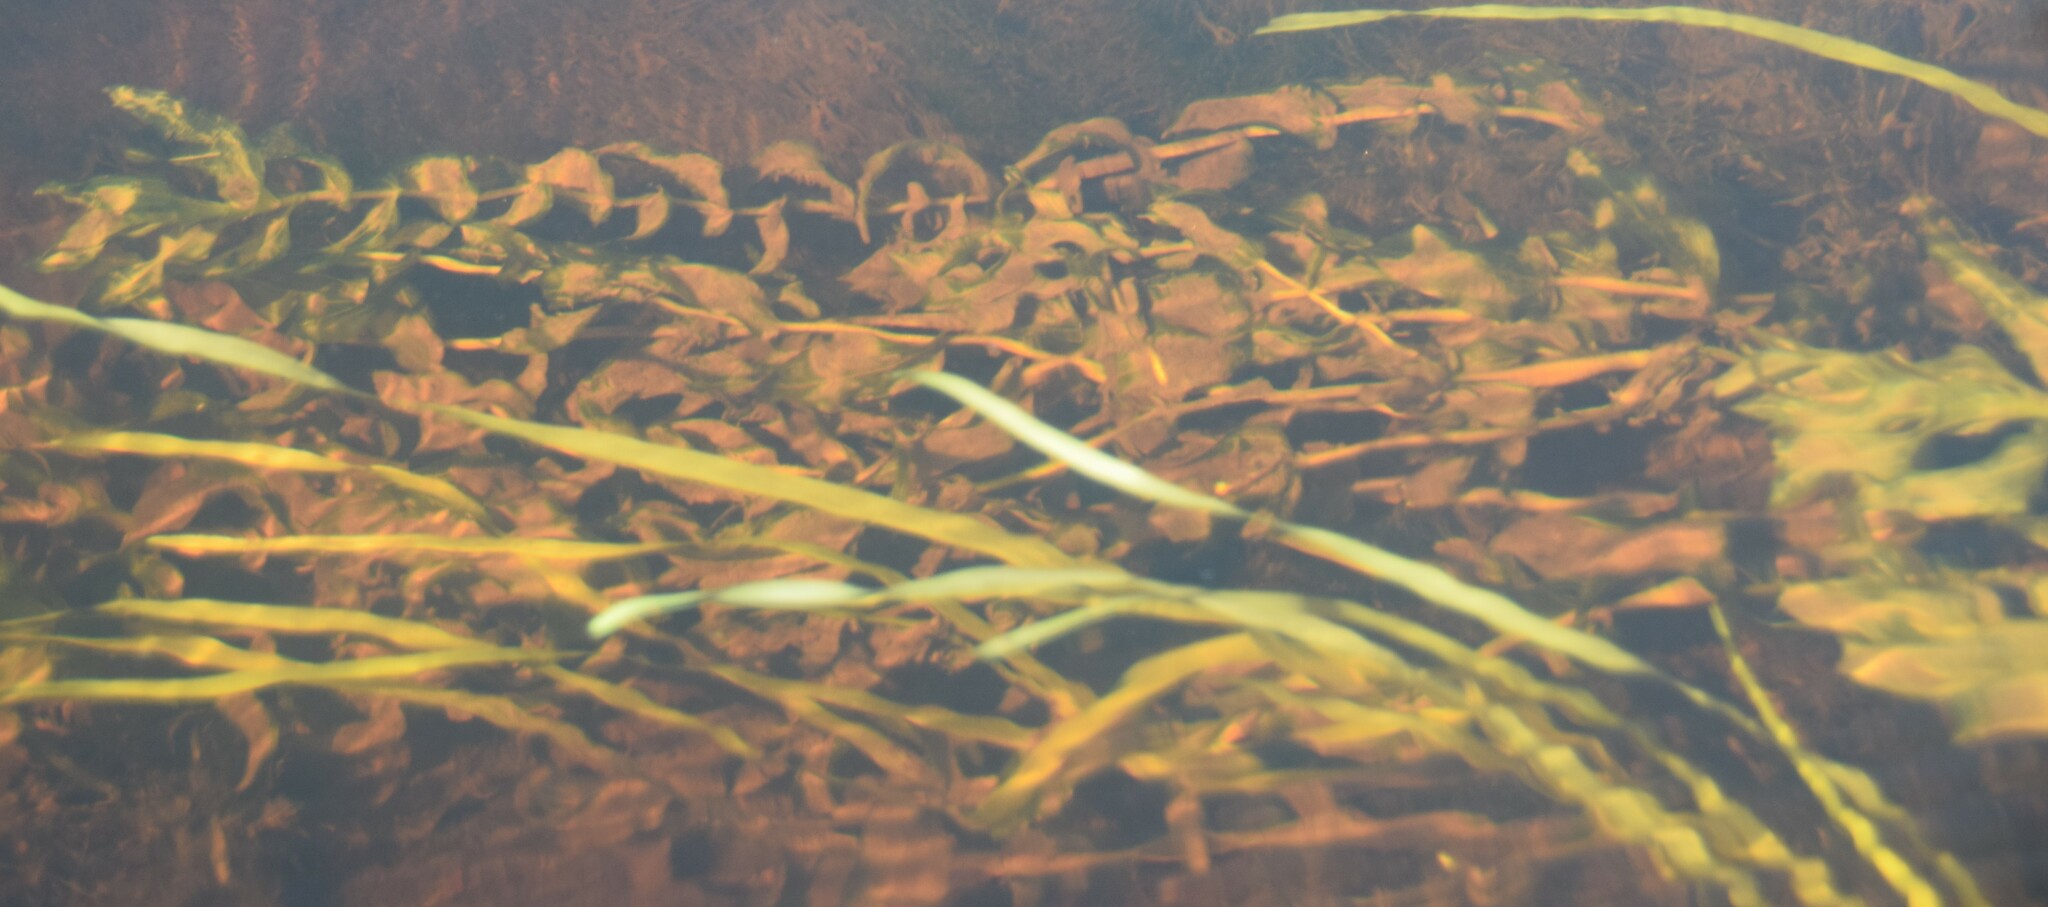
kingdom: Plantae
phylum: Tracheophyta
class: Liliopsida
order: Alismatales
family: Potamogetonaceae
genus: Potamogeton
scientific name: Potamogeton richardsonii
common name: Richardson's pondweed
